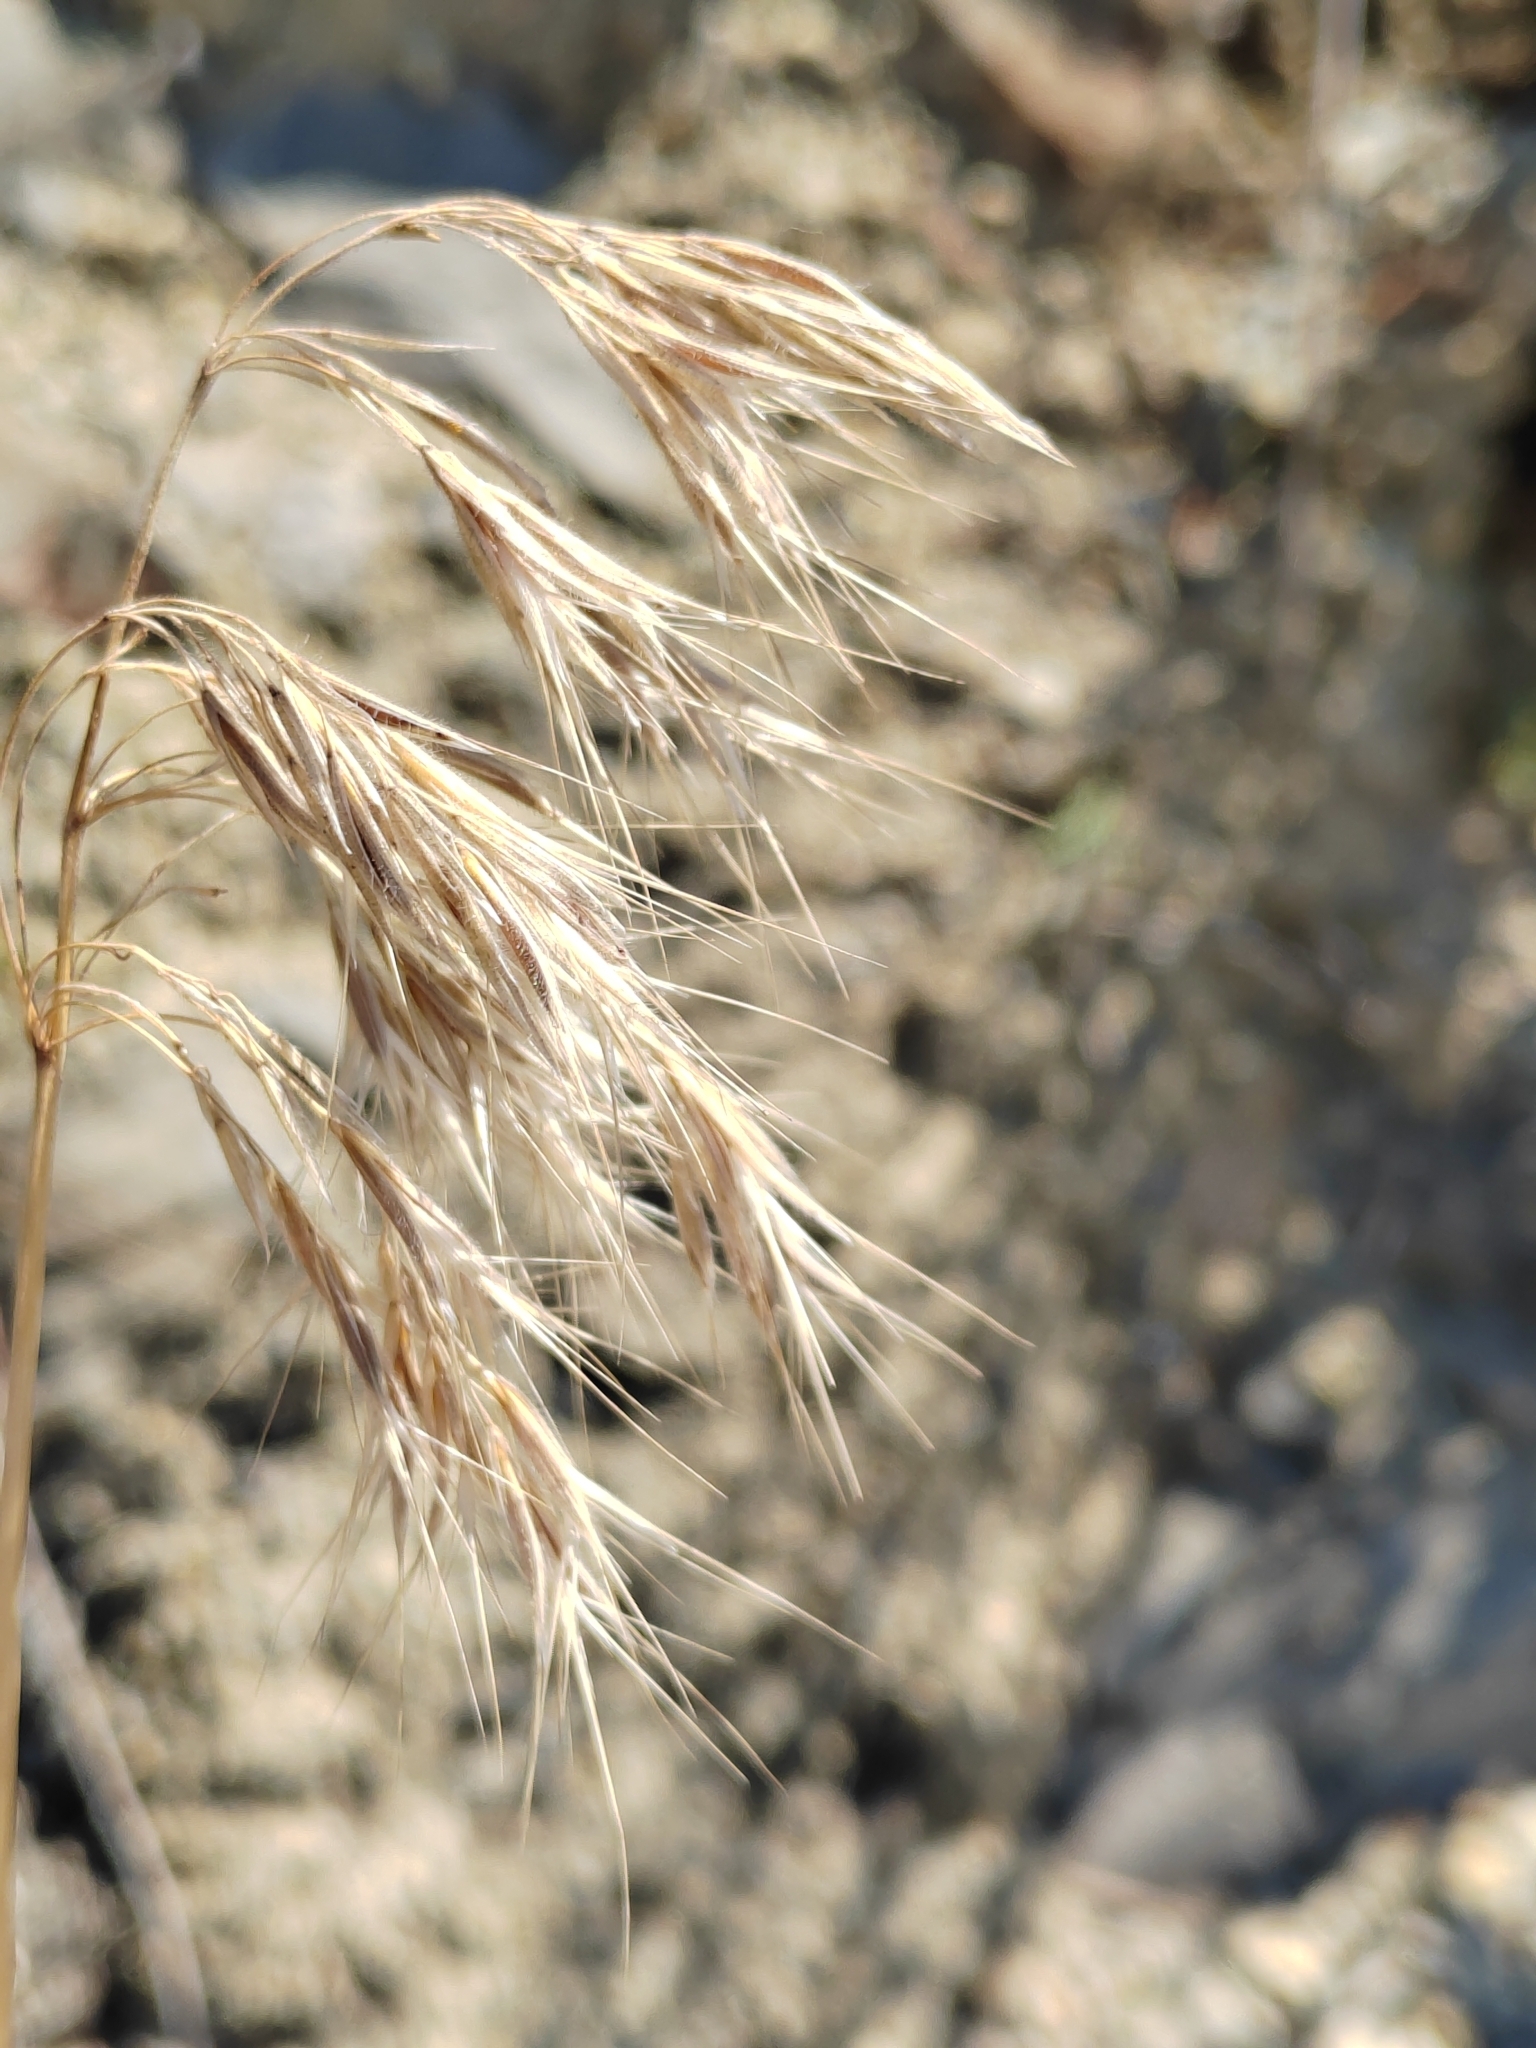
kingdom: Plantae
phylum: Tracheophyta
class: Liliopsida
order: Poales
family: Poaceae
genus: Bromus
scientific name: Bromus tectorum
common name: Cheatgrass
